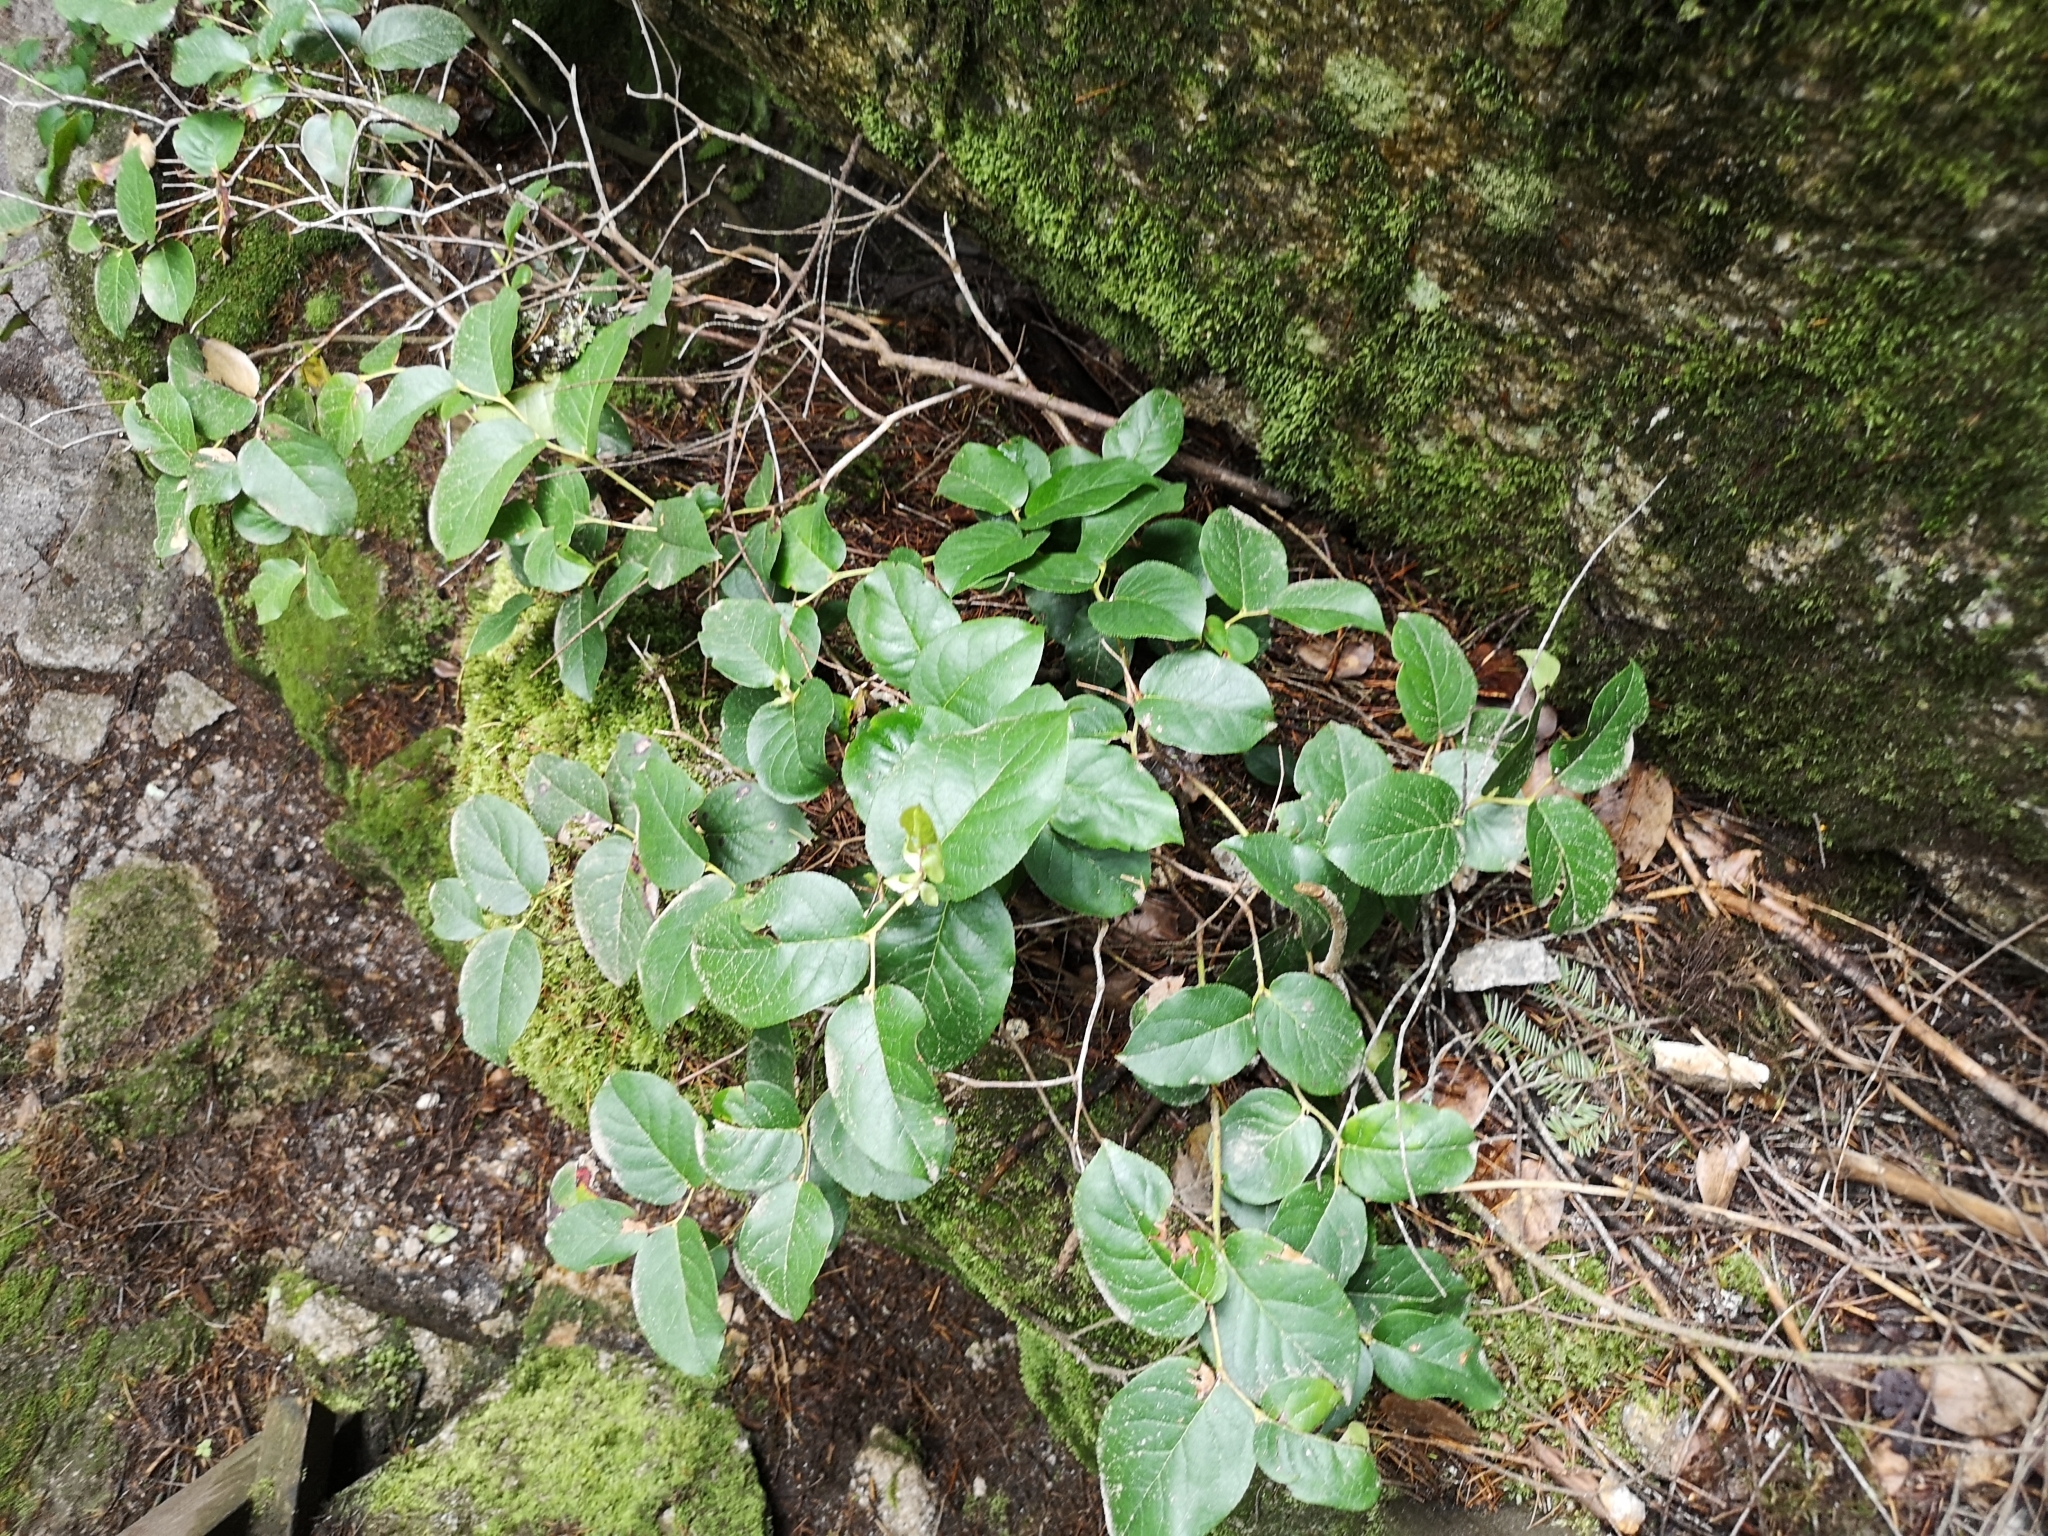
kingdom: Plantae
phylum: Tracheophyta
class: Magnoliopsida
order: Ericales
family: Ericaceae
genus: Gaultheria
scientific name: Gaultheria shallon
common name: Shallon
